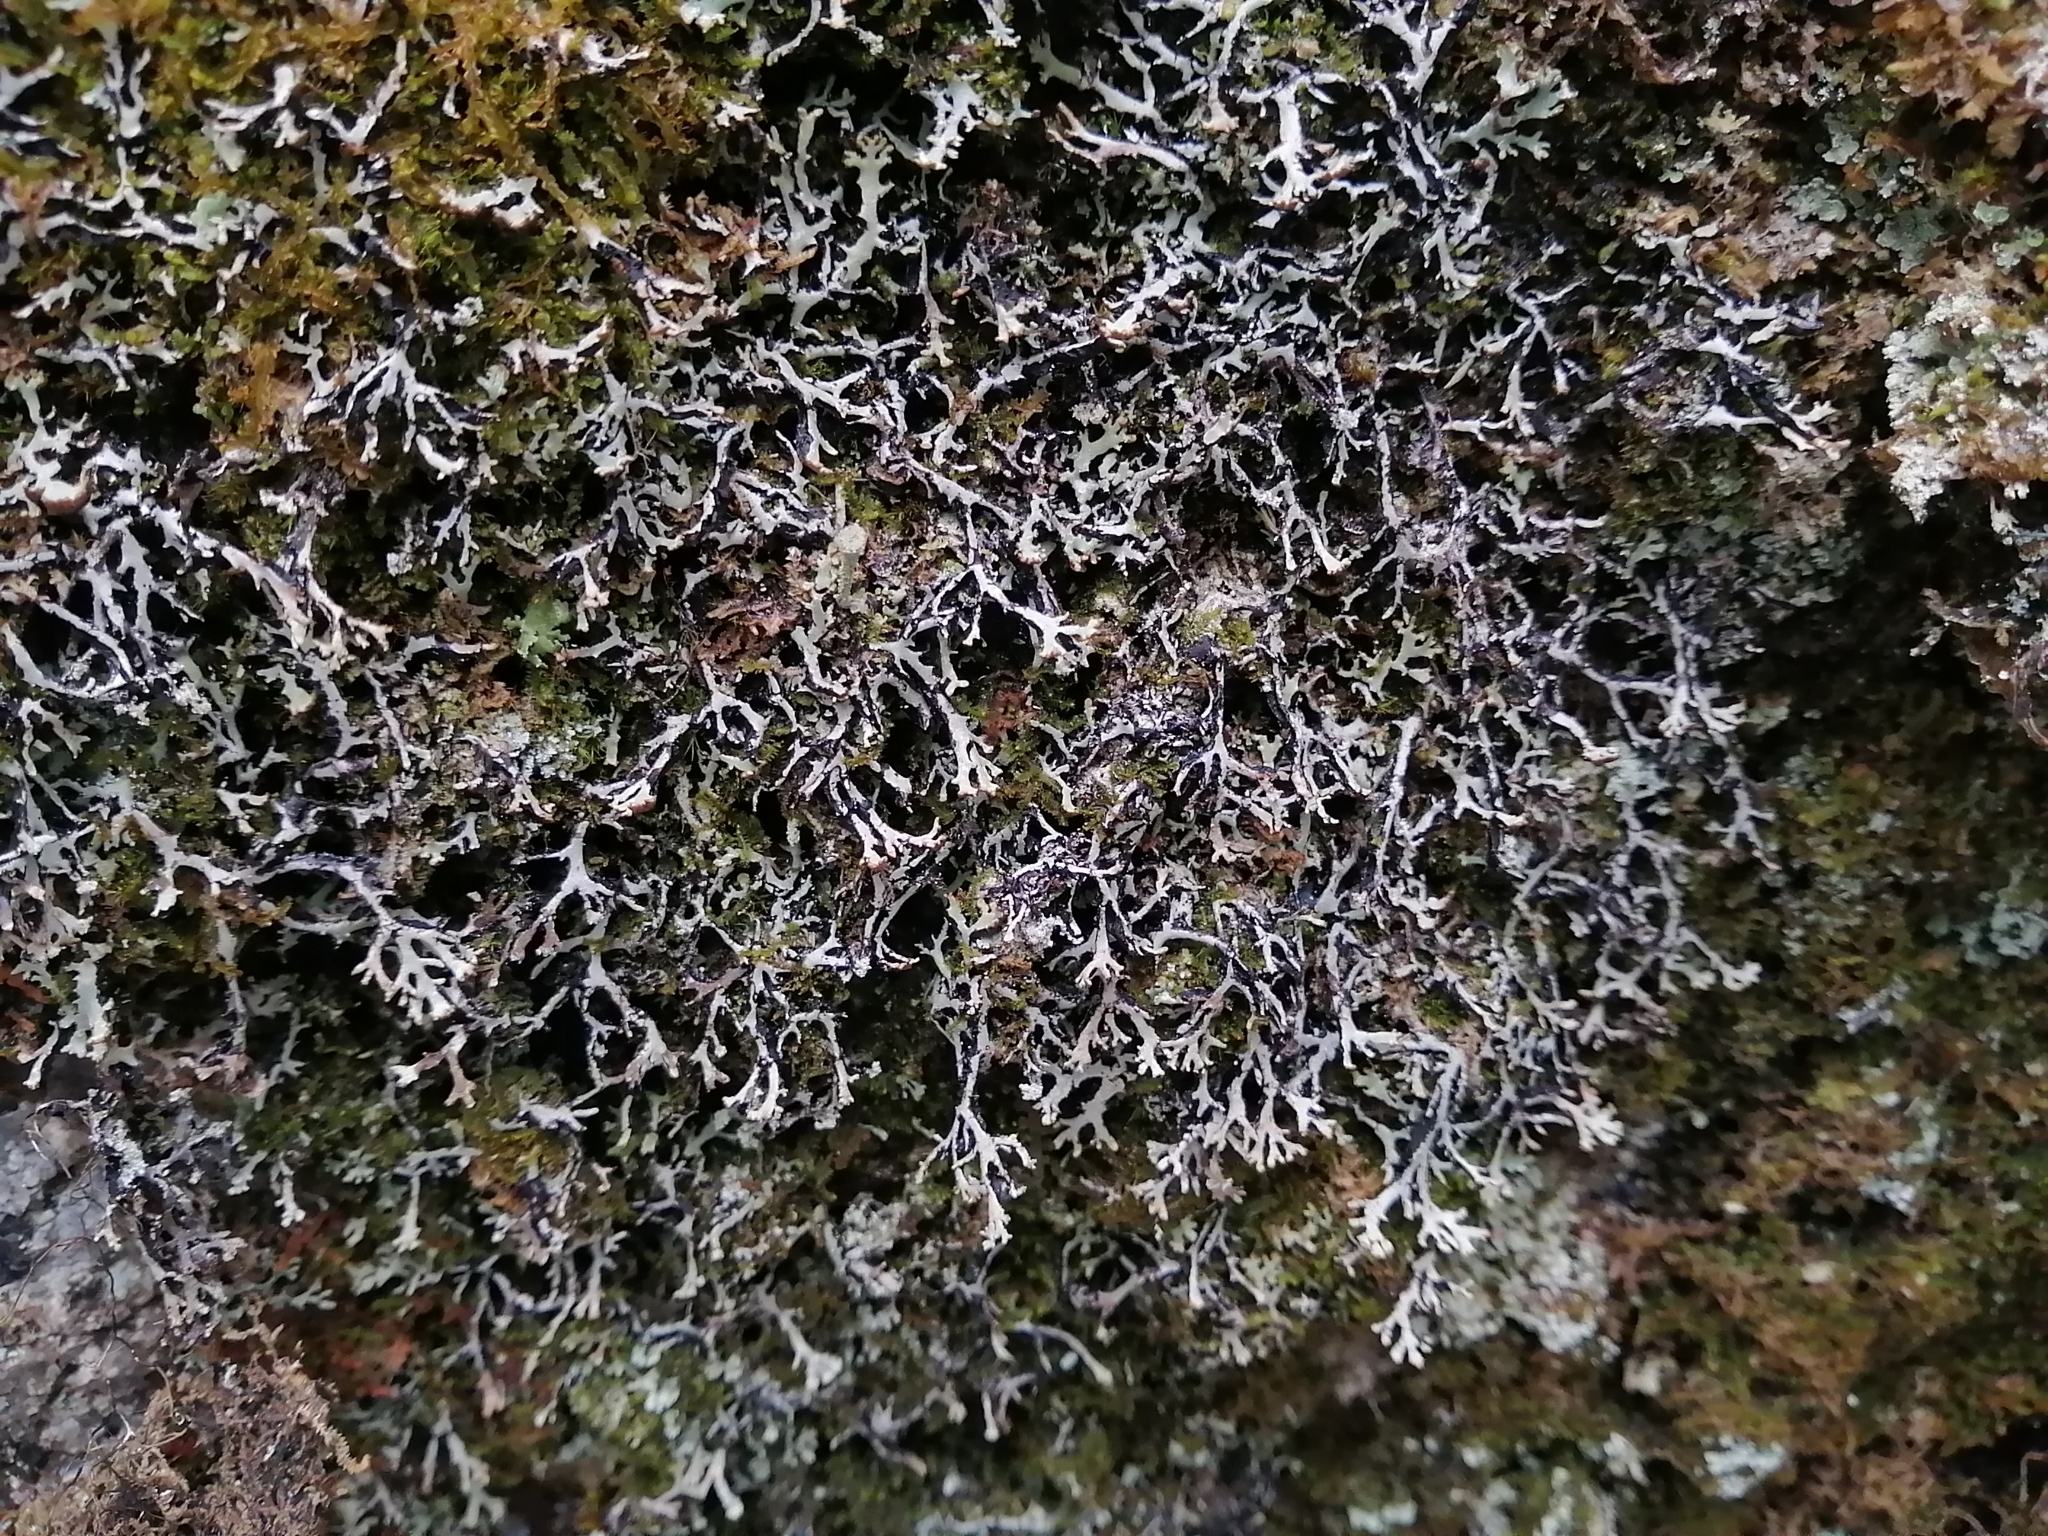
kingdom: Fungi
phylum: Ascomycota
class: Lecanoromycetes
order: Lecanorales
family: Parmeliaceae
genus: Hypogymnia
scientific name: Hypogymnia vittata
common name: Brownish monk's-hood lichen
